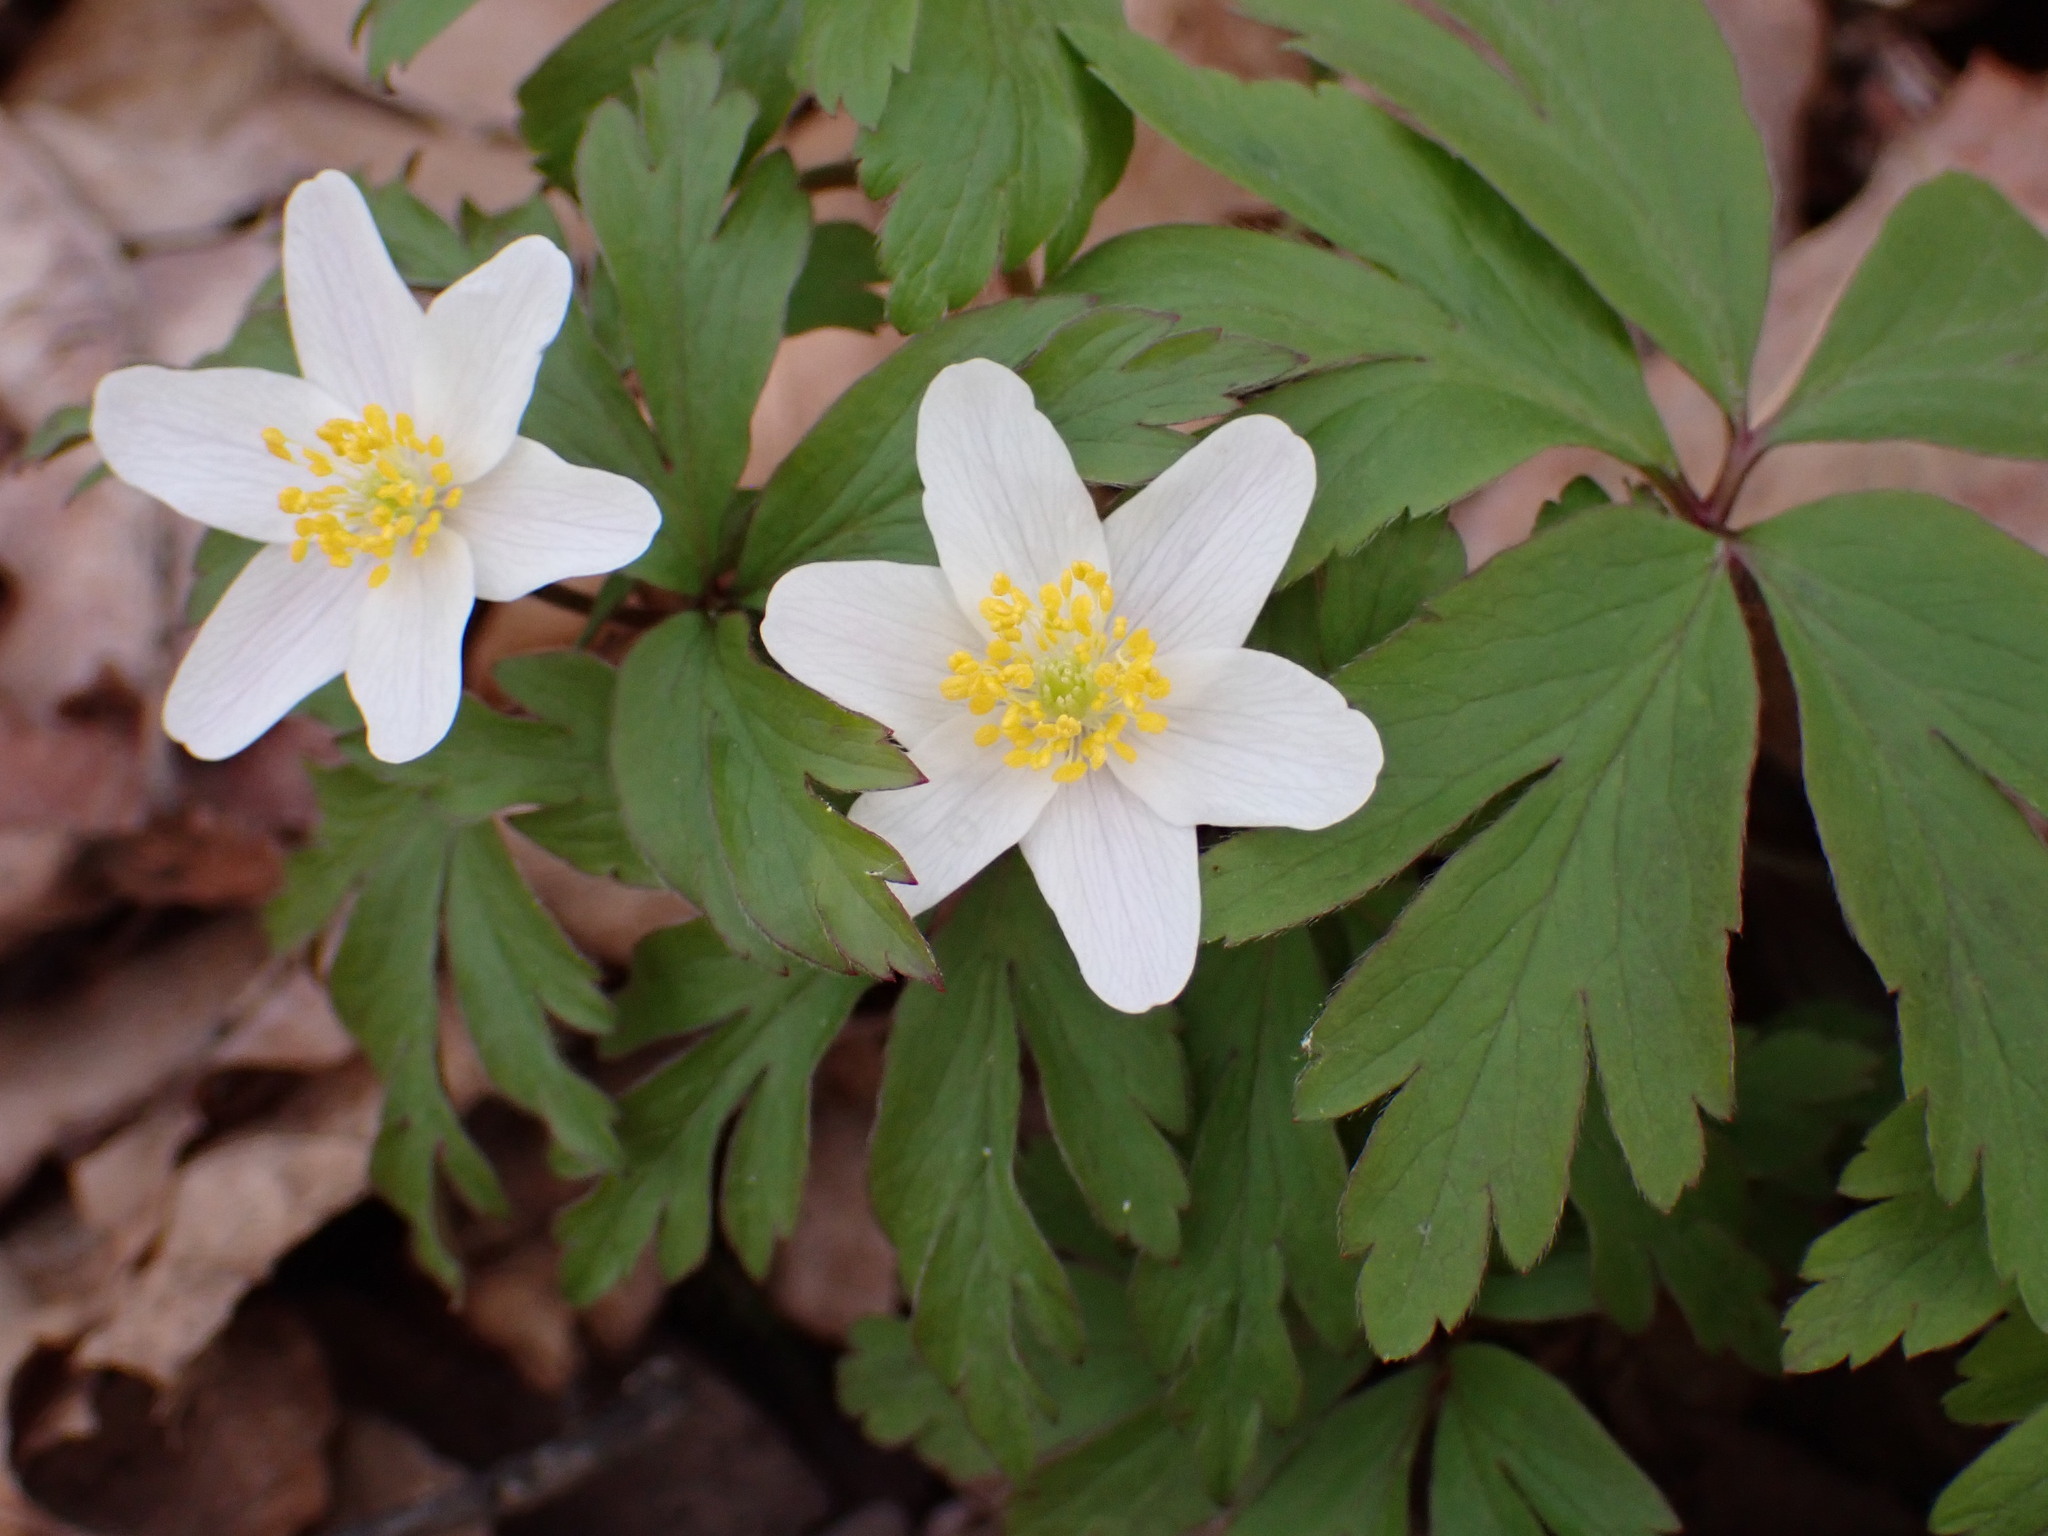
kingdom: Plantae
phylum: Tracheophyta
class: Magnoliopsida
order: Ranunculales
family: Ranunculaceae
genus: Anemone
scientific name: Anemone nemorosa
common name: Wood anemone
